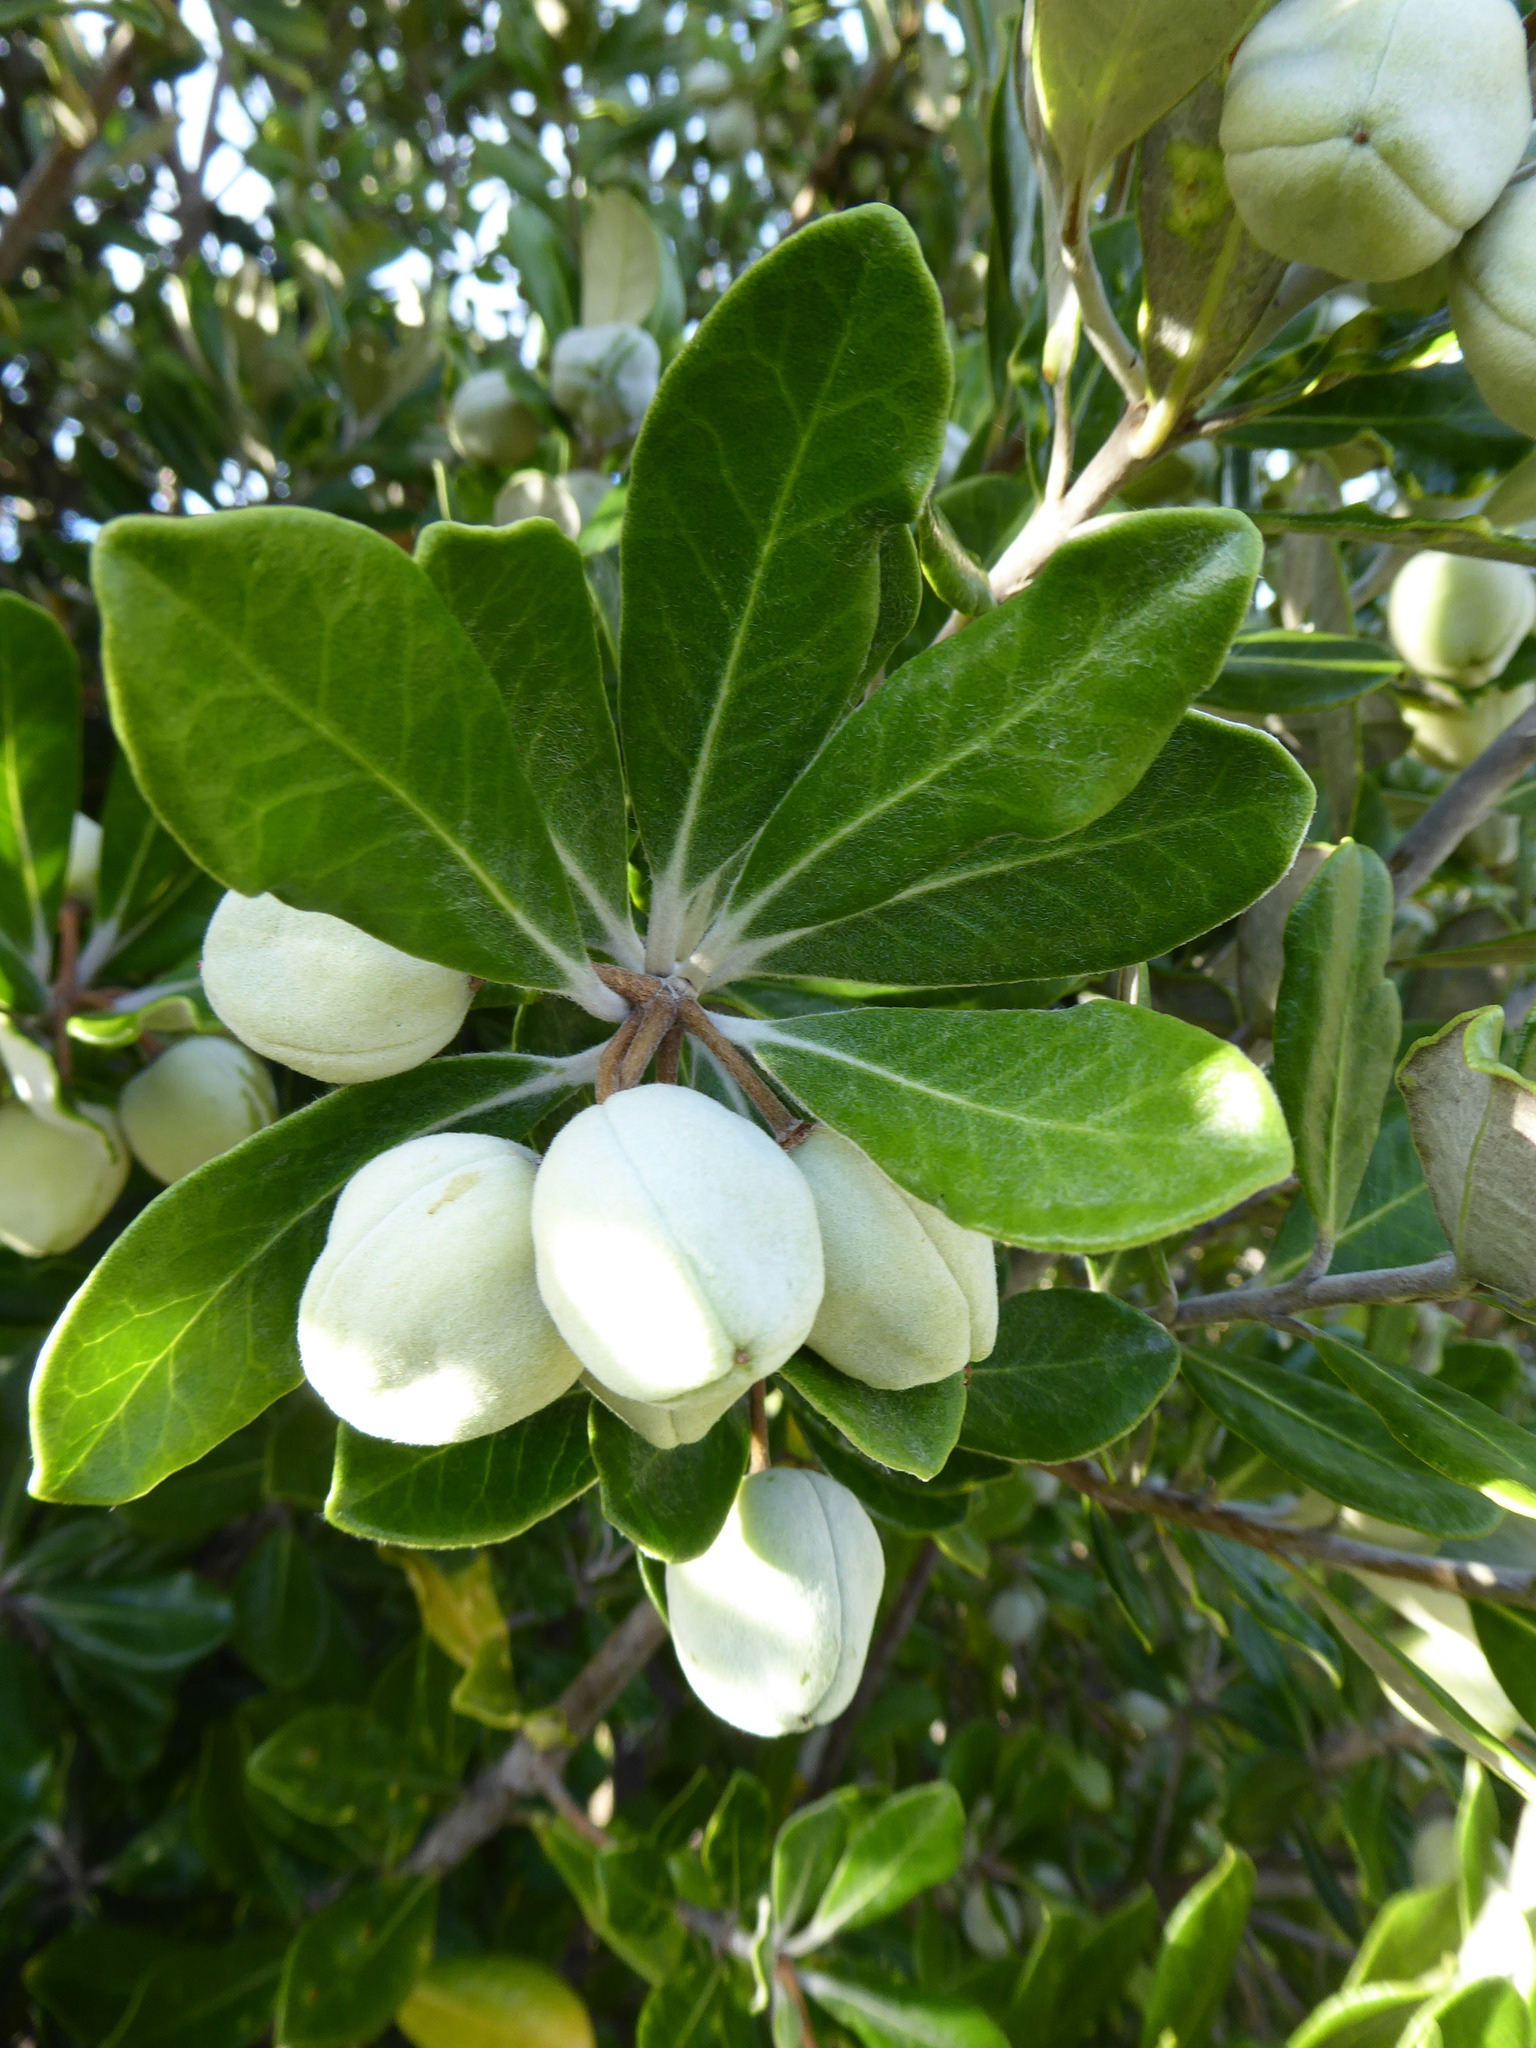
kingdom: Plantae
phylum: Tracheophyta
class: Magnoliopsida
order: Apiales
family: Pittosporaceae
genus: Pittosporum
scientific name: Pittosporum crassifolium
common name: Karo
